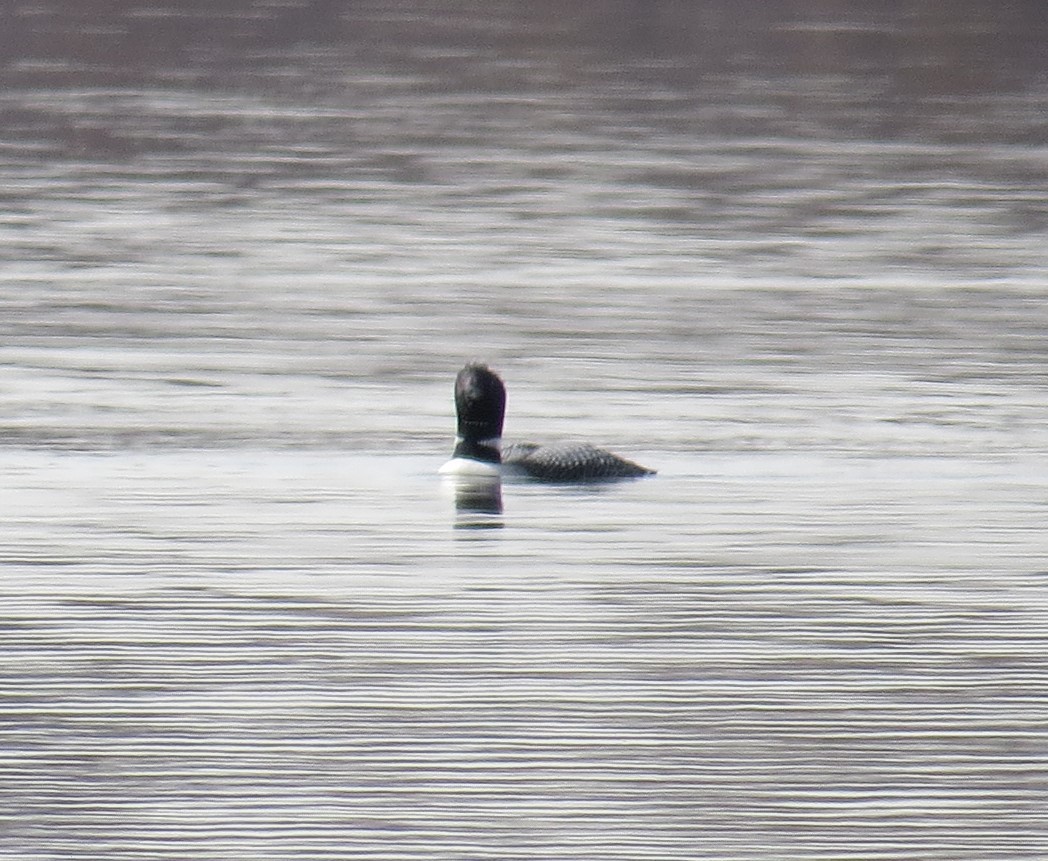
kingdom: Animalia
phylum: Chordata
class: Aves
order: Gaviiformes
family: Gaviidae
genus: Gavia
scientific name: Gavia immer
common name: Common loon
